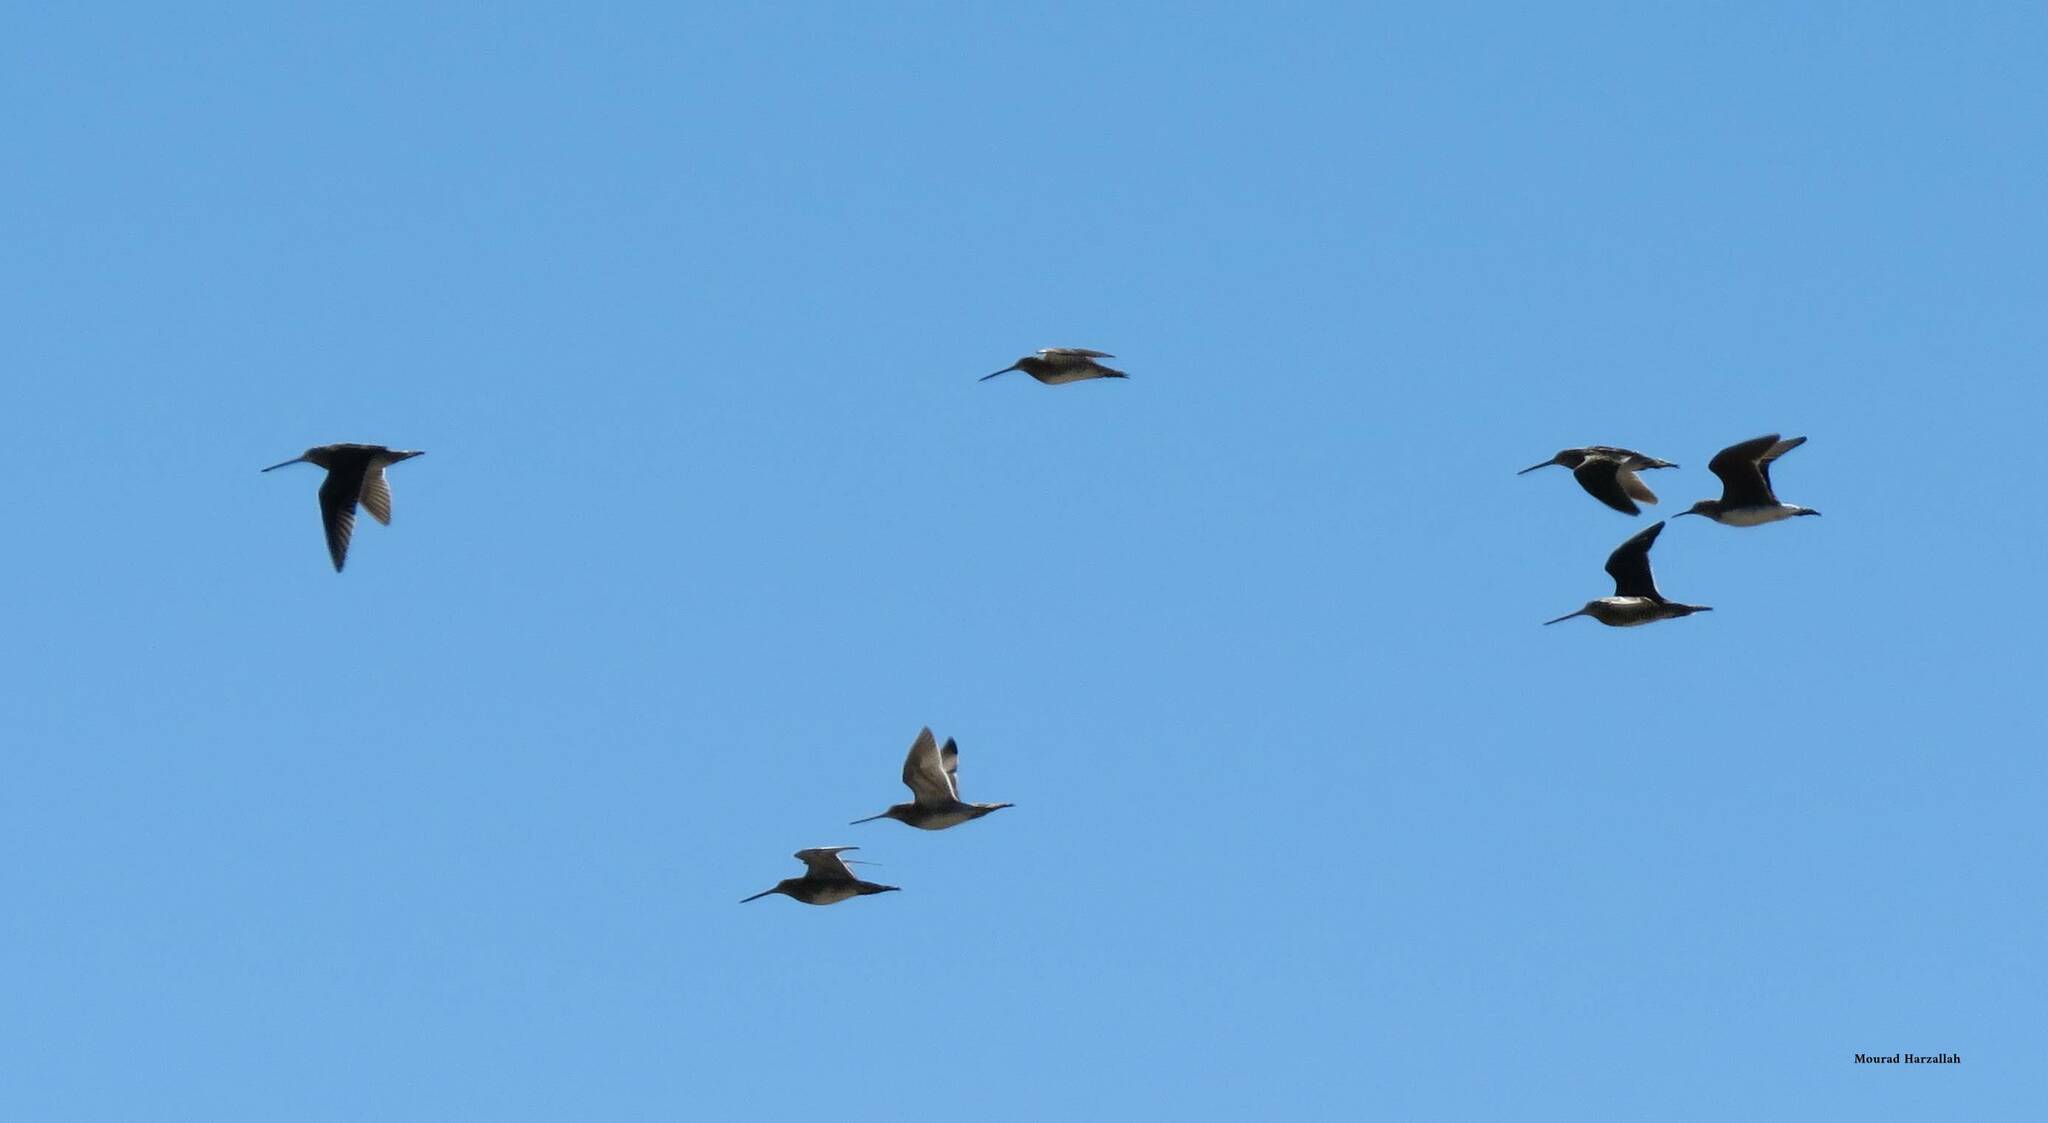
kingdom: Animalia
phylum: Chordata
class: Aves
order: Charadriiformes
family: Scolopacidae
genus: Gallinago
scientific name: Gallinago gallinago
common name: Common snipe
